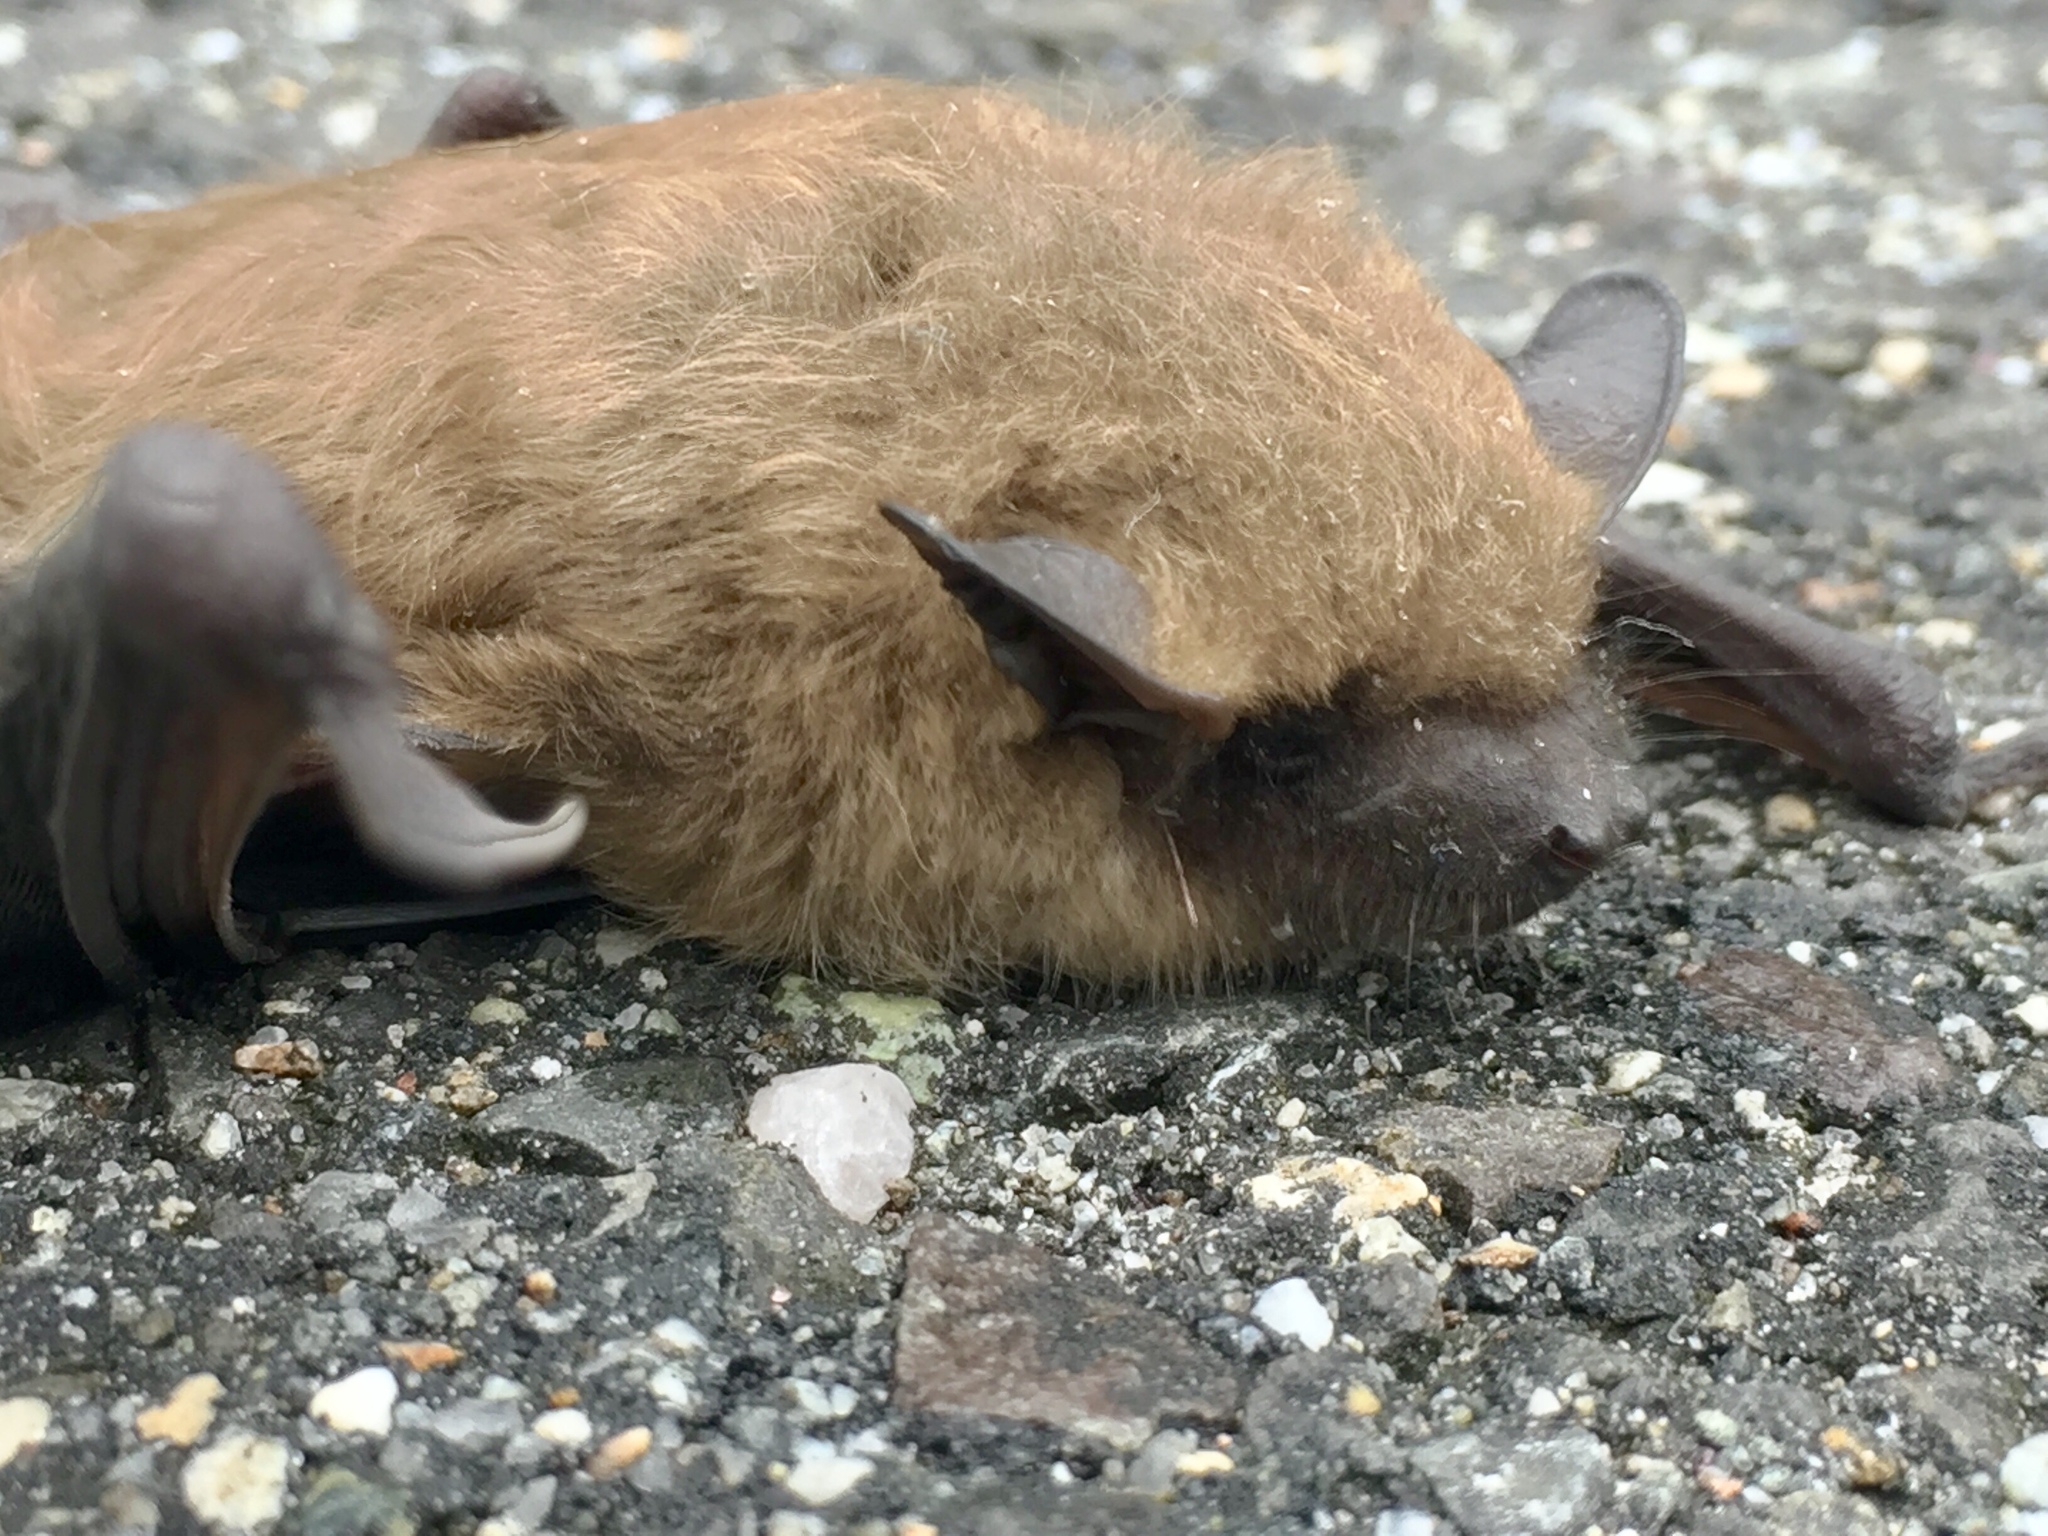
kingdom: Animalia
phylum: Chordata
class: Mammalia
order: Chiroptera
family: Vespertilionidae
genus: Eptesicus
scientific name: Eptesicus fuscus
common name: Big brown bat
